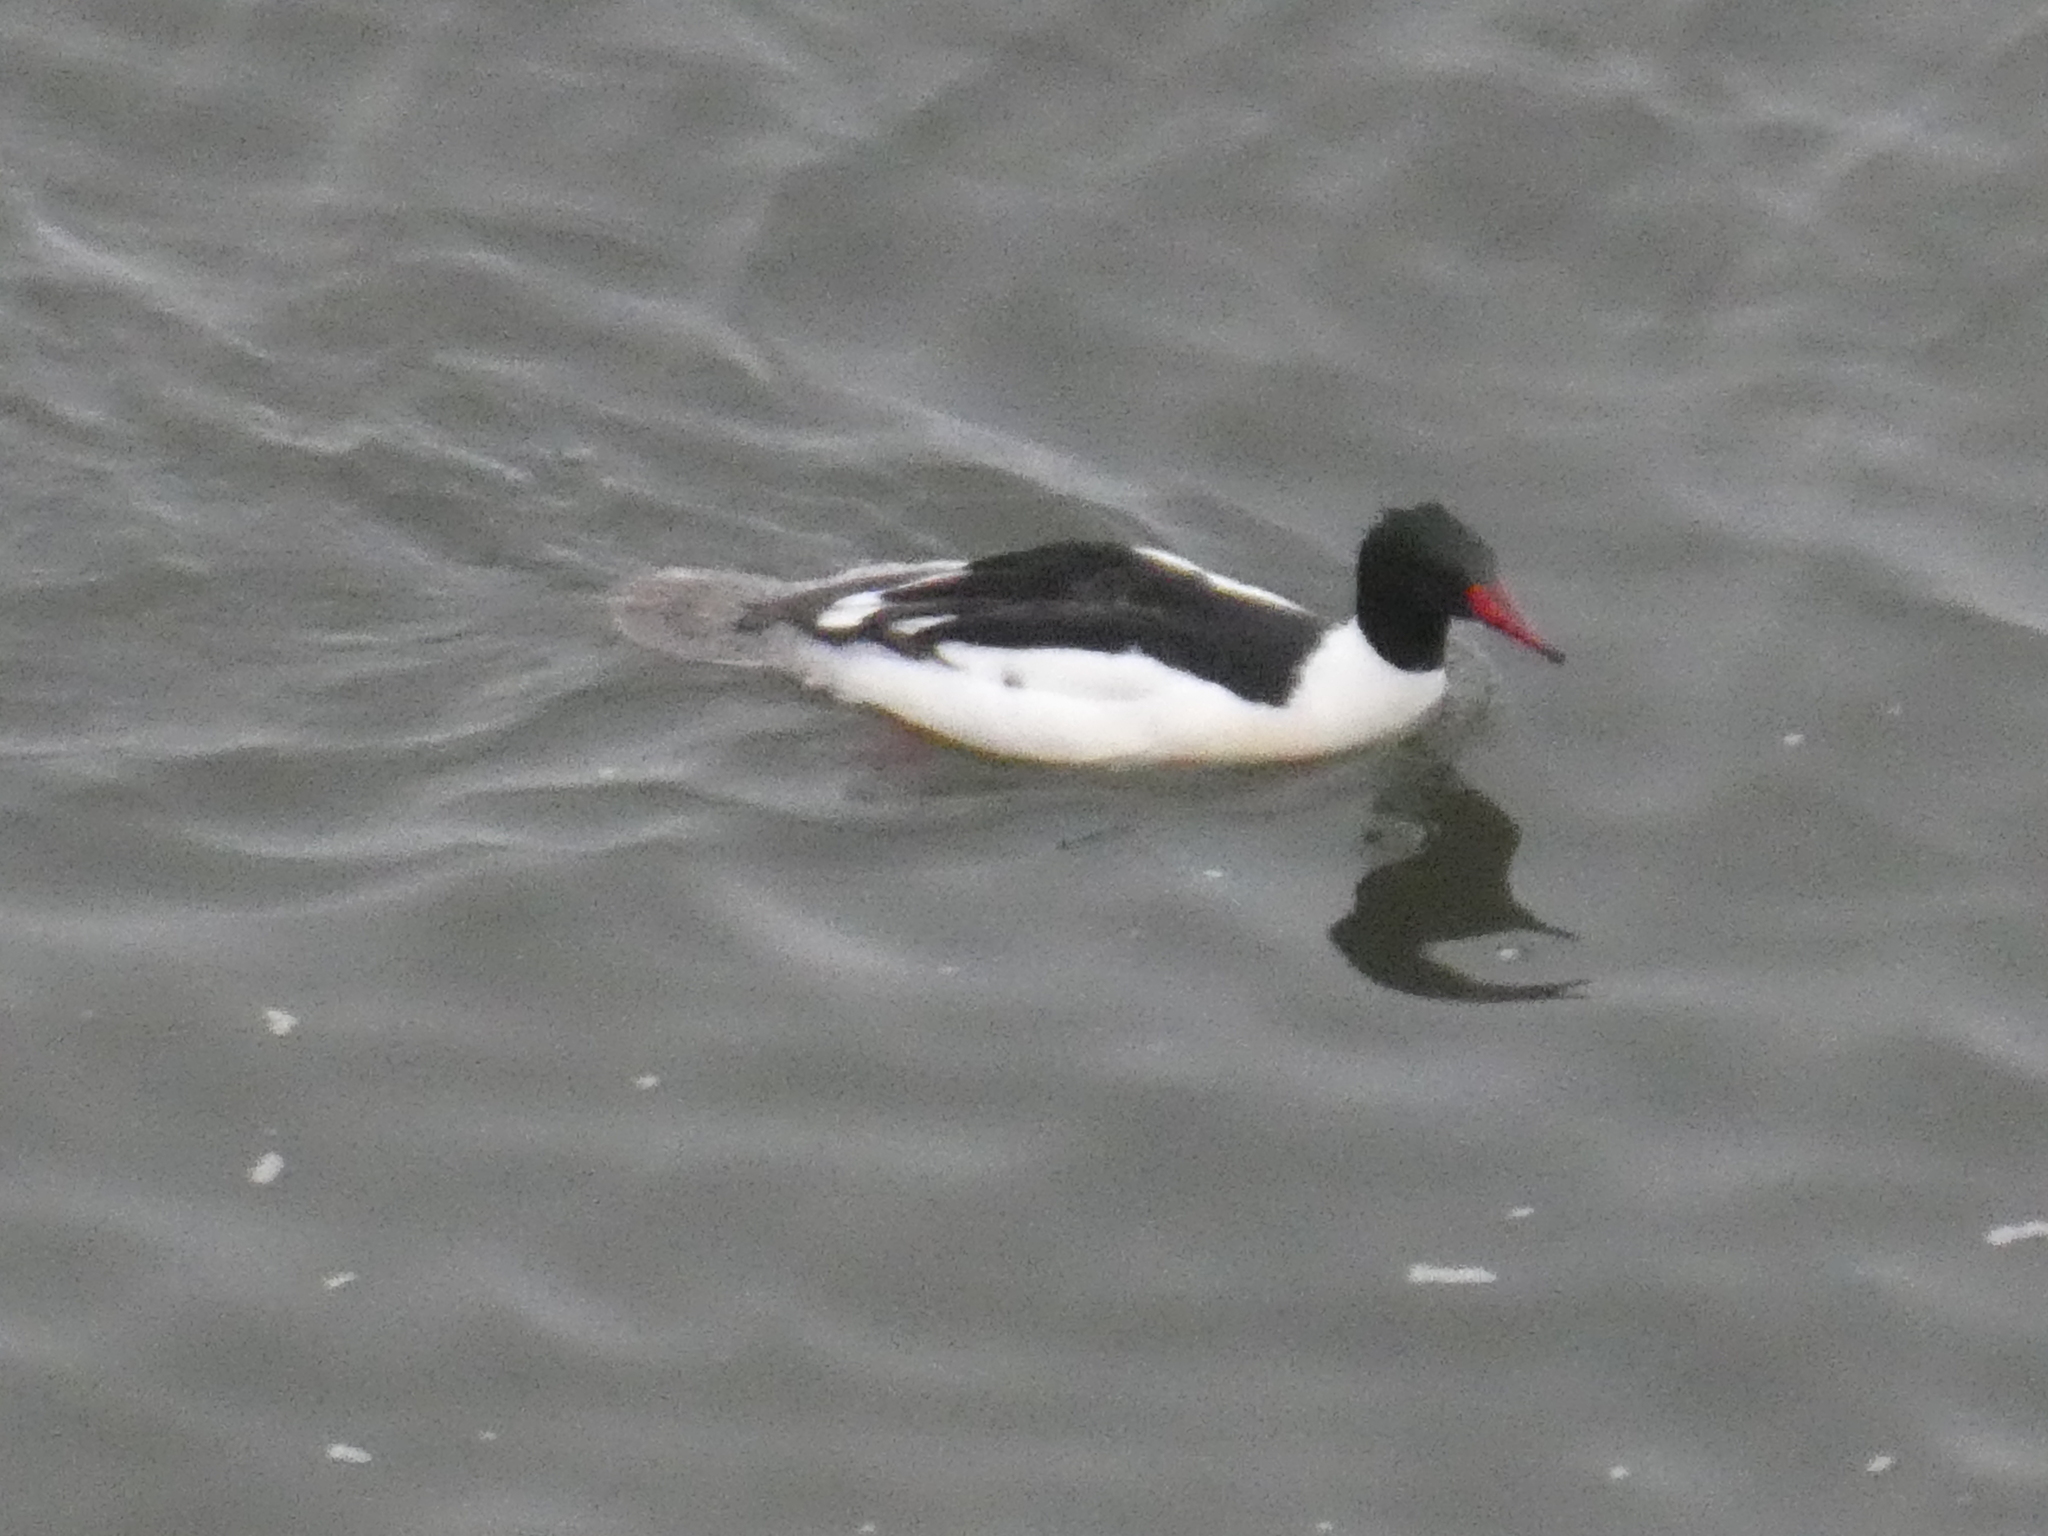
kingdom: Animalia
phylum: Chordata
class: Aves
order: Anseriformes
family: Anatidae
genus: Mergus
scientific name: Mergus merganser
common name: Common merganser
